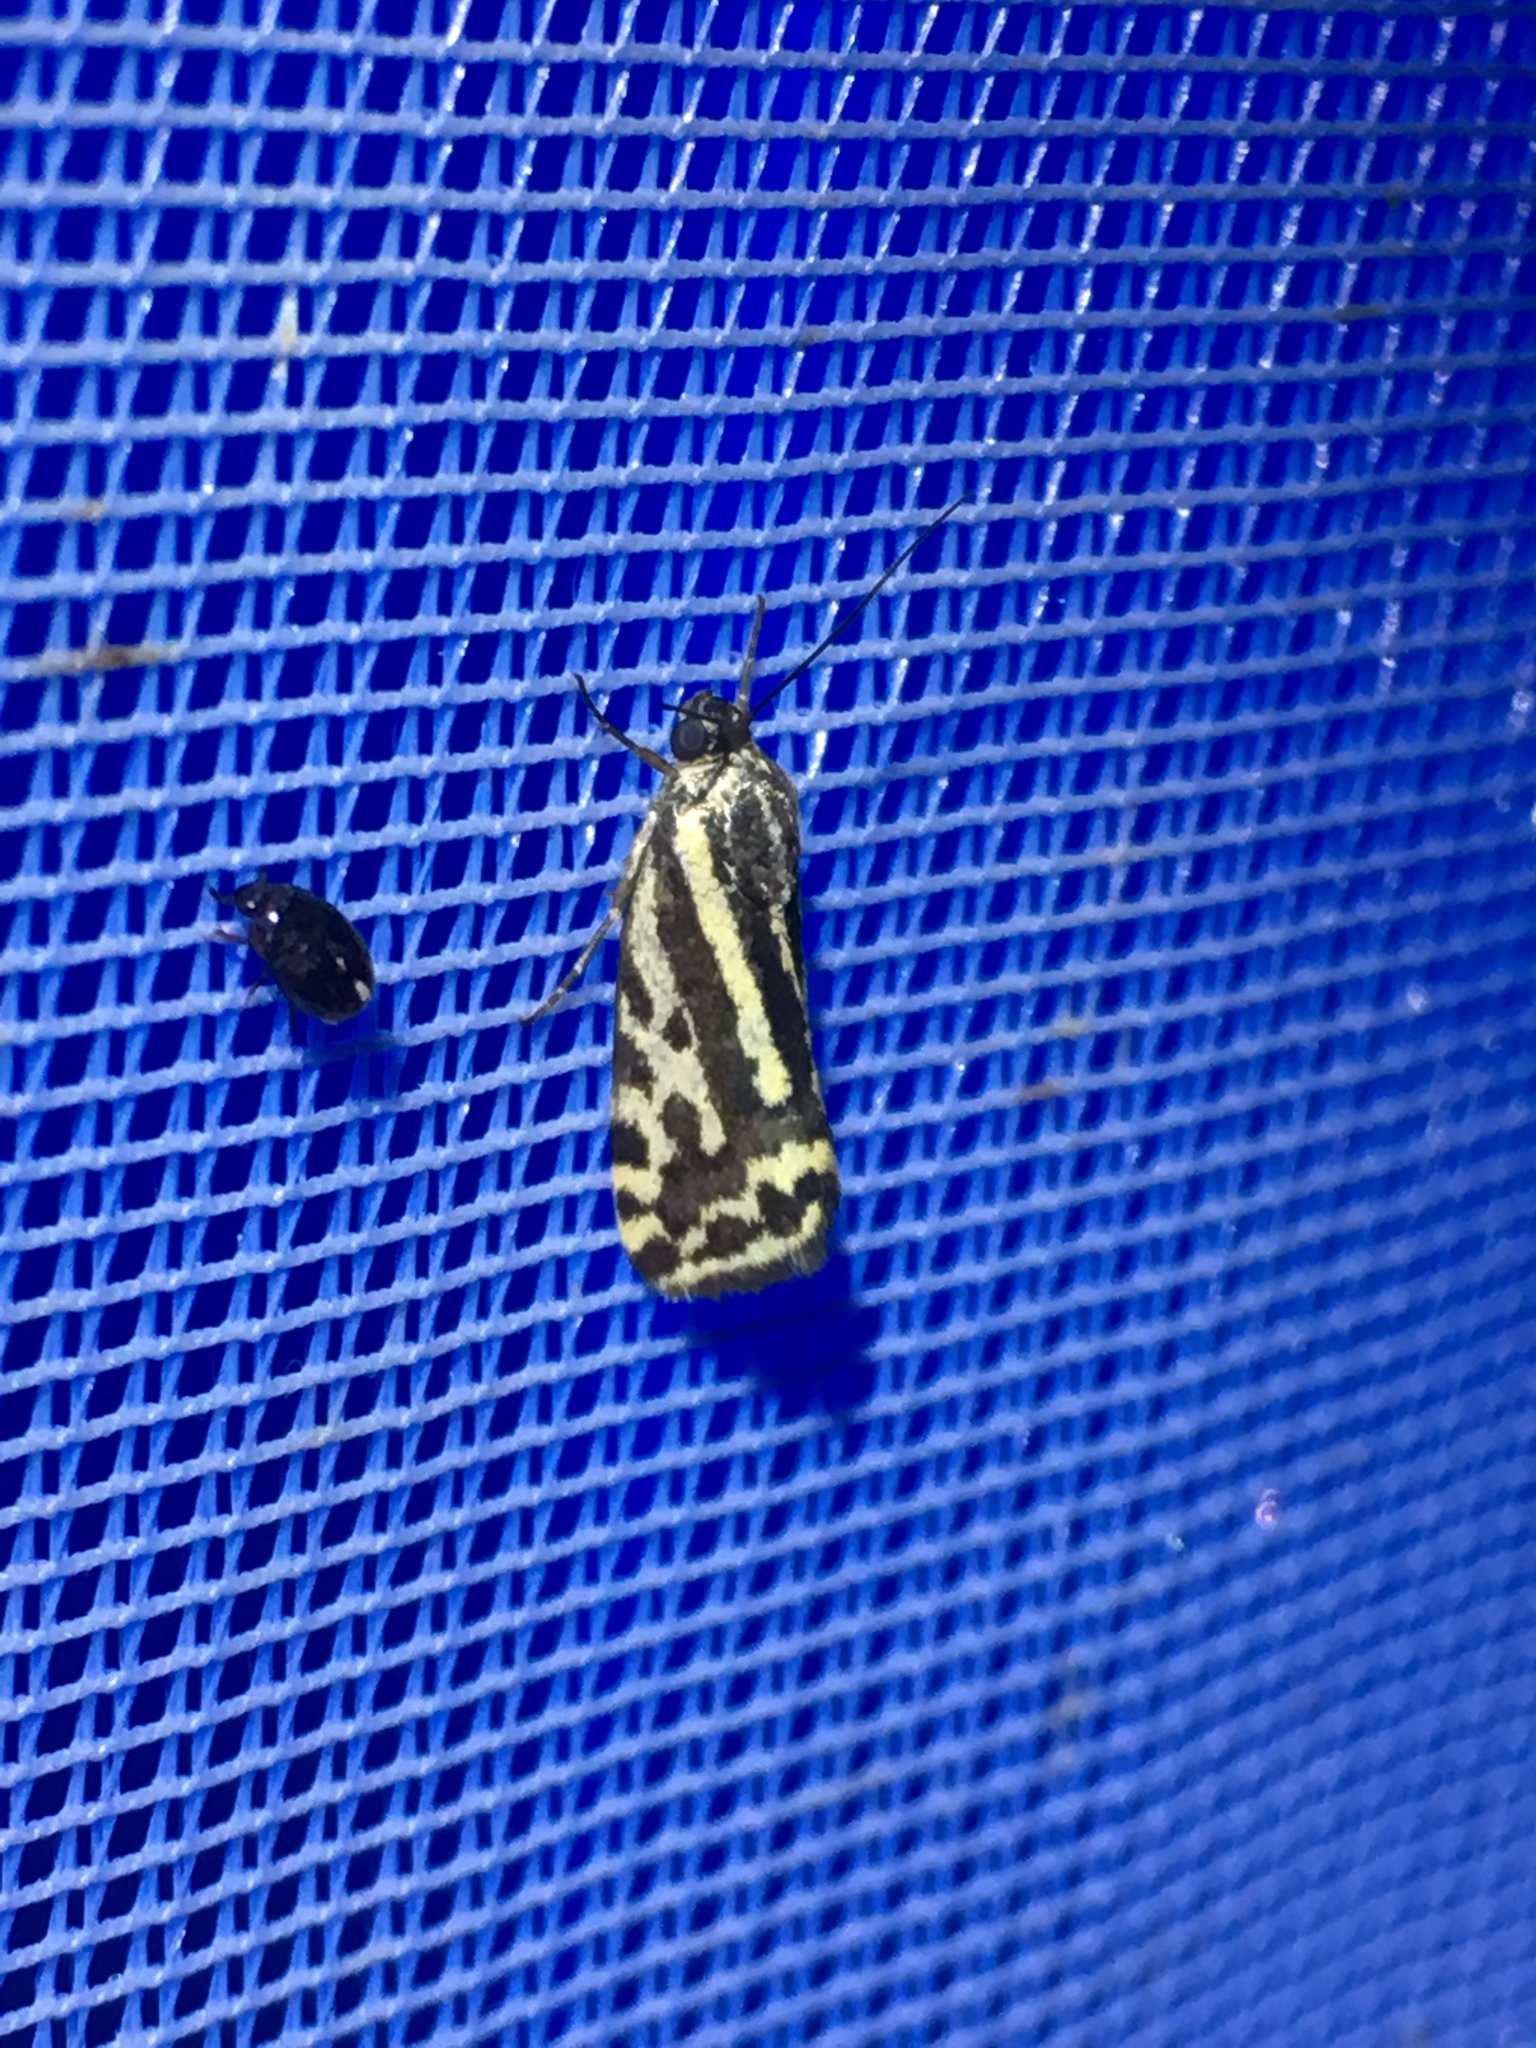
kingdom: Animalia
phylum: Arthropoda
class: Insecta
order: Lepidoptera
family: Noctuidae
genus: Acontia
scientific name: Acontia trabealis
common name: Spotted sulphur
